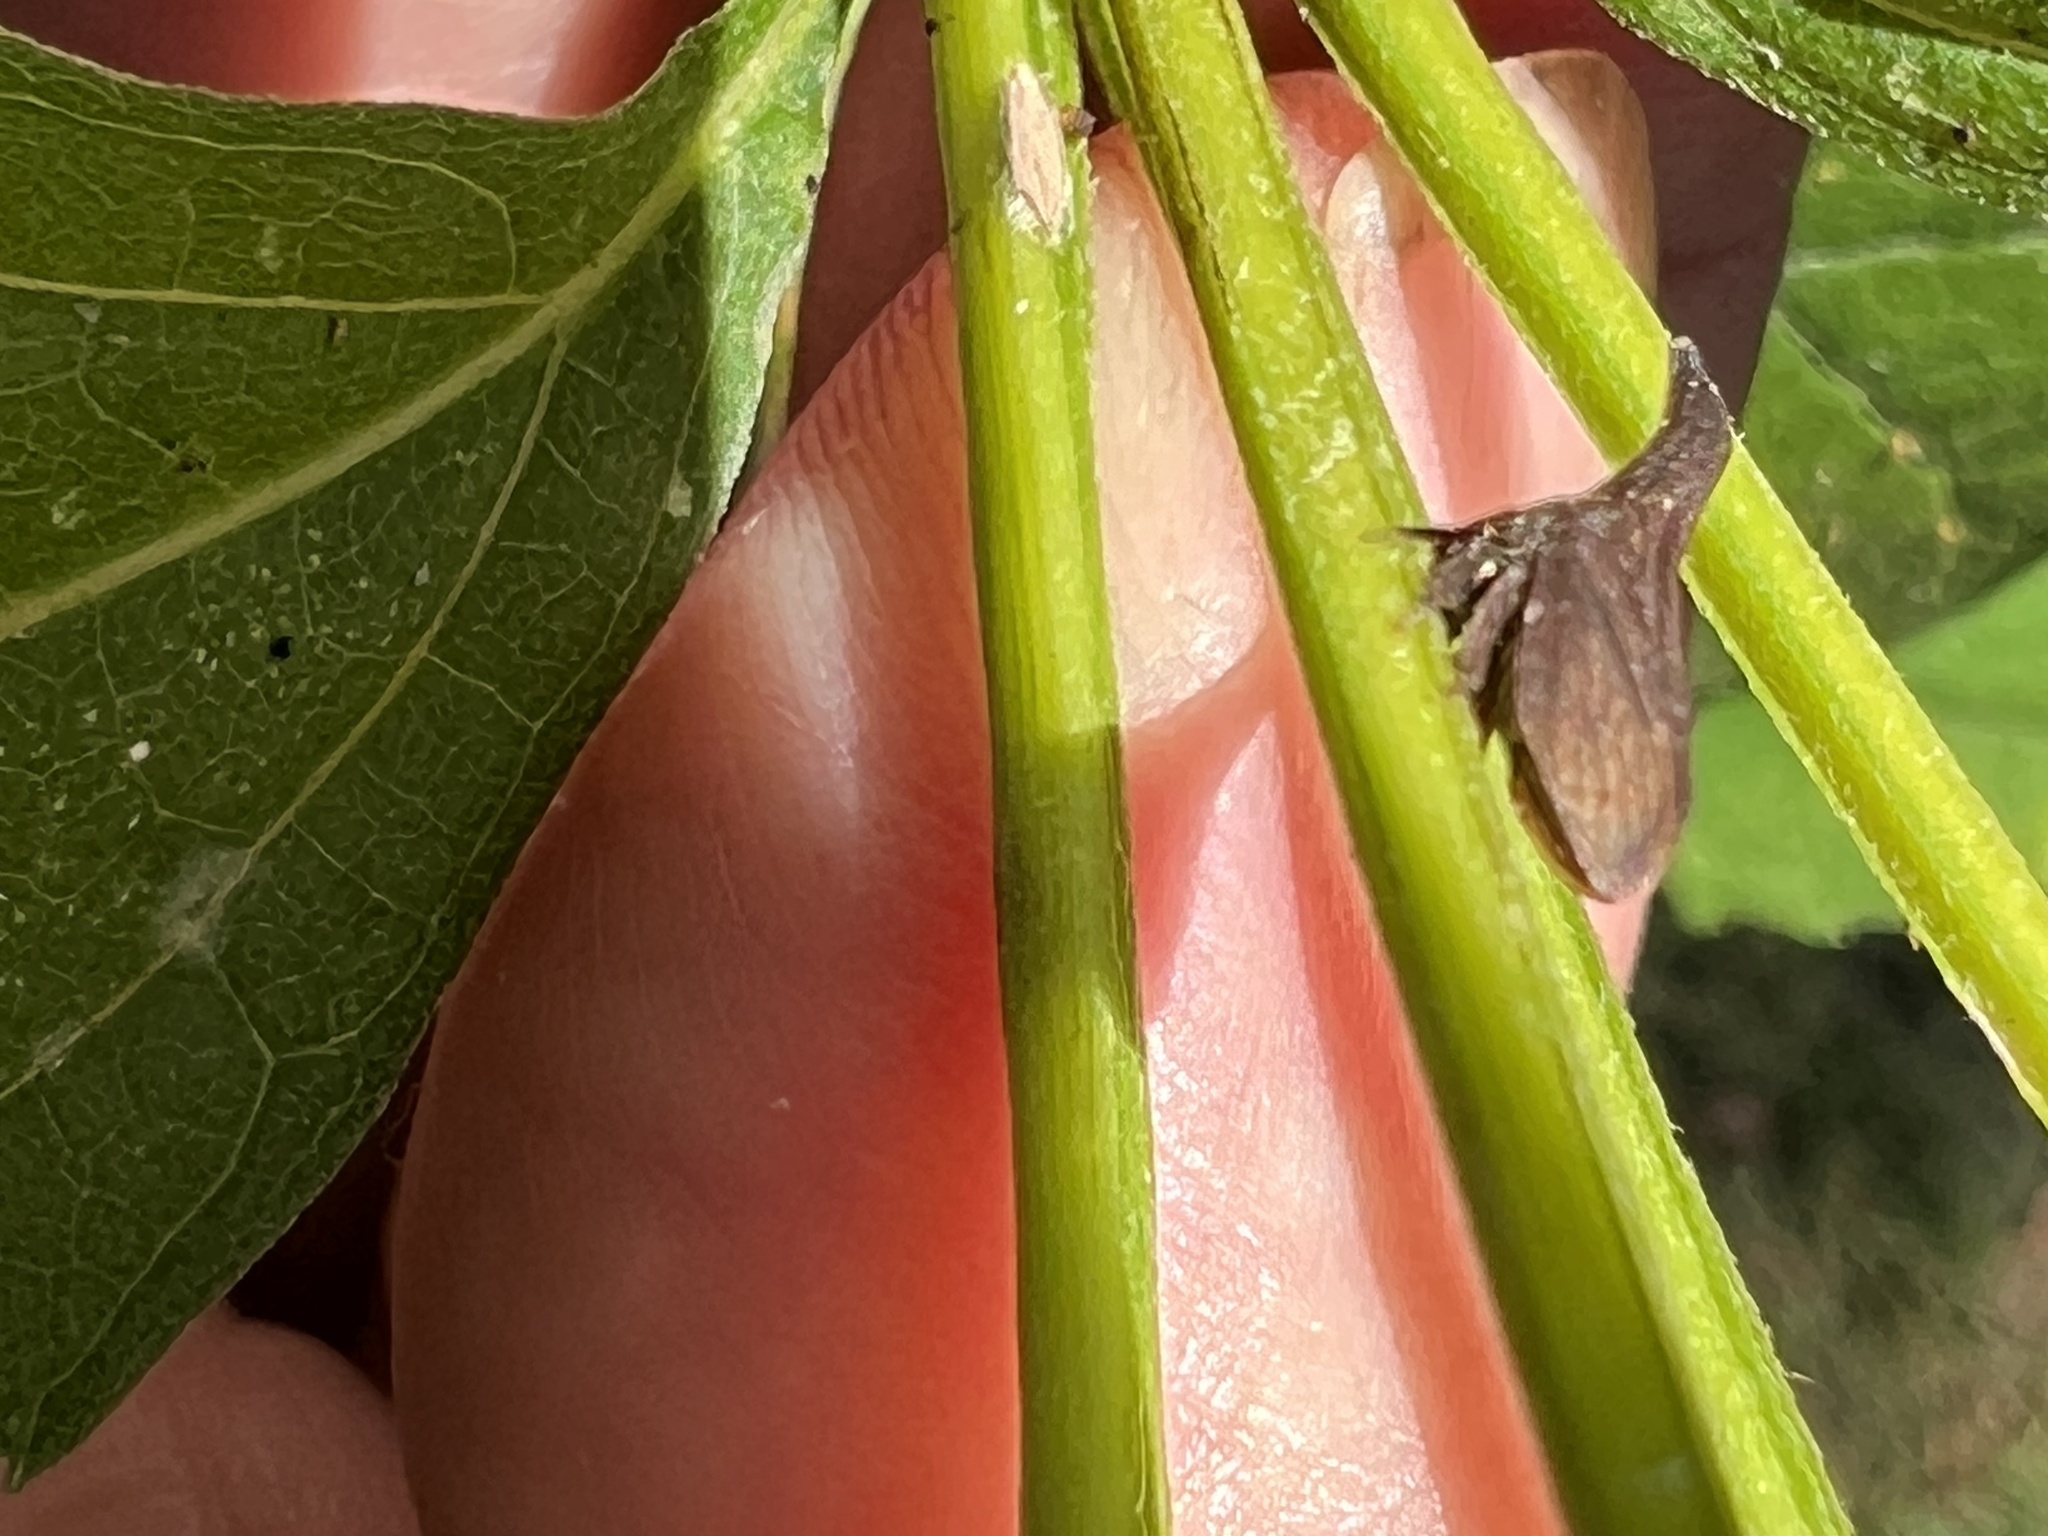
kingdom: Animalia
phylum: Arthropoda
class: Insecta
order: Hemiptera
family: Membracidae
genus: Enchenopa
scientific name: Enchenopa latipes
